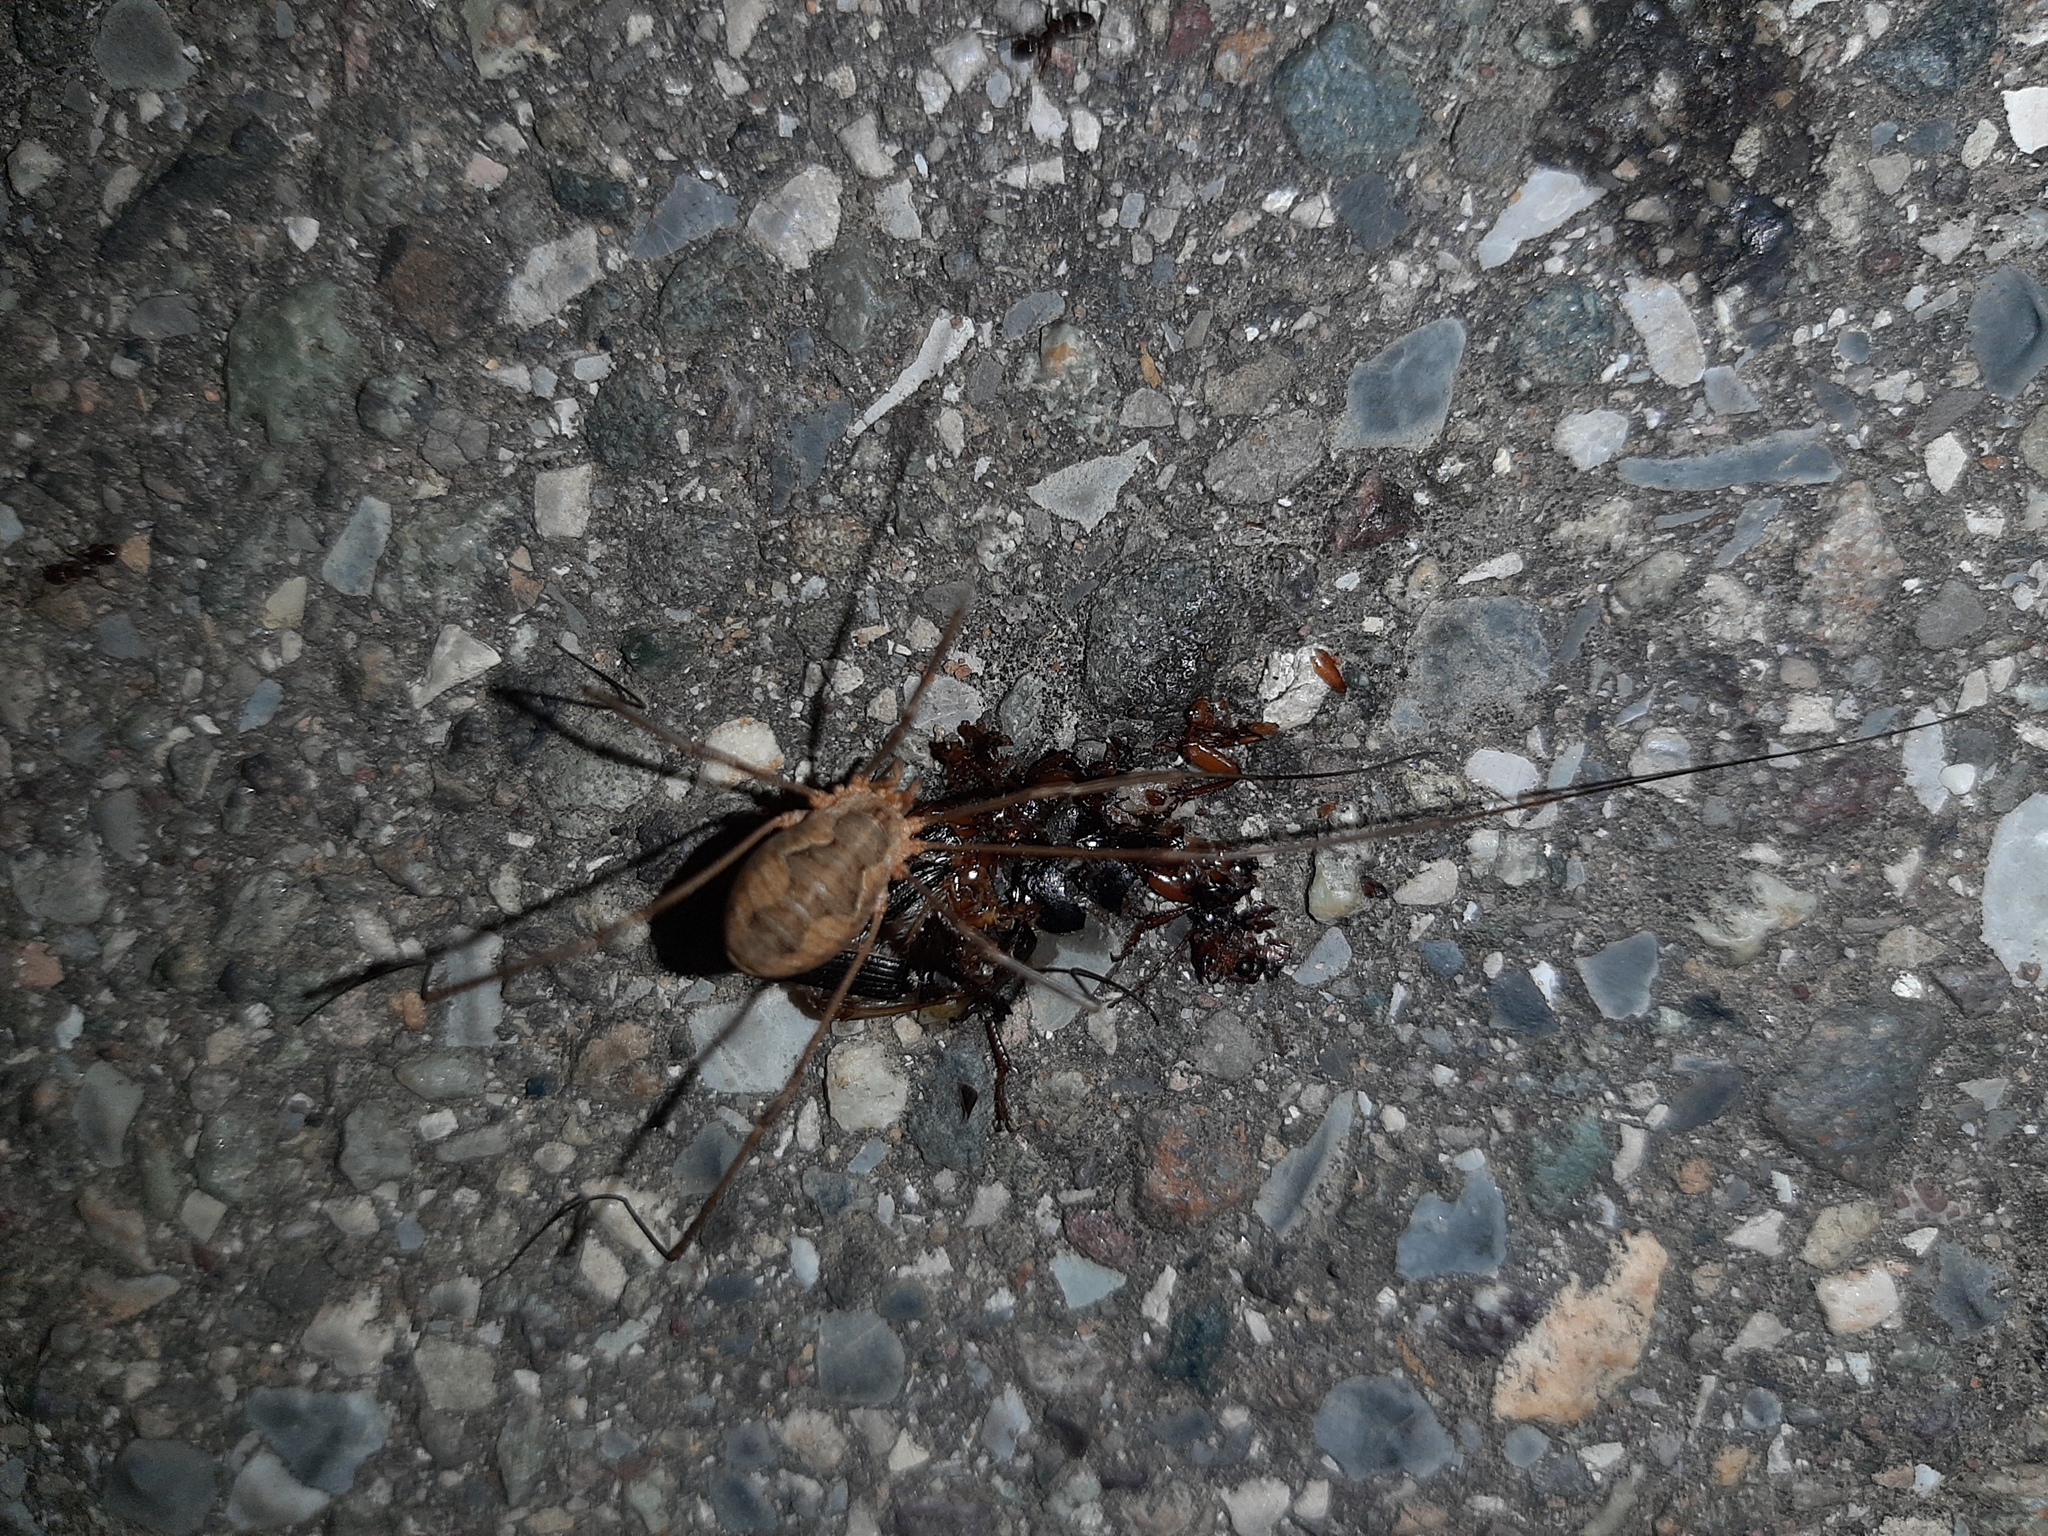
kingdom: Animalia
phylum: Arthropoda
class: Arachnida
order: Opiliones
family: Phalangiidae
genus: Phalangium
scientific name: Phalangium opilio
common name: Daddy longleg
